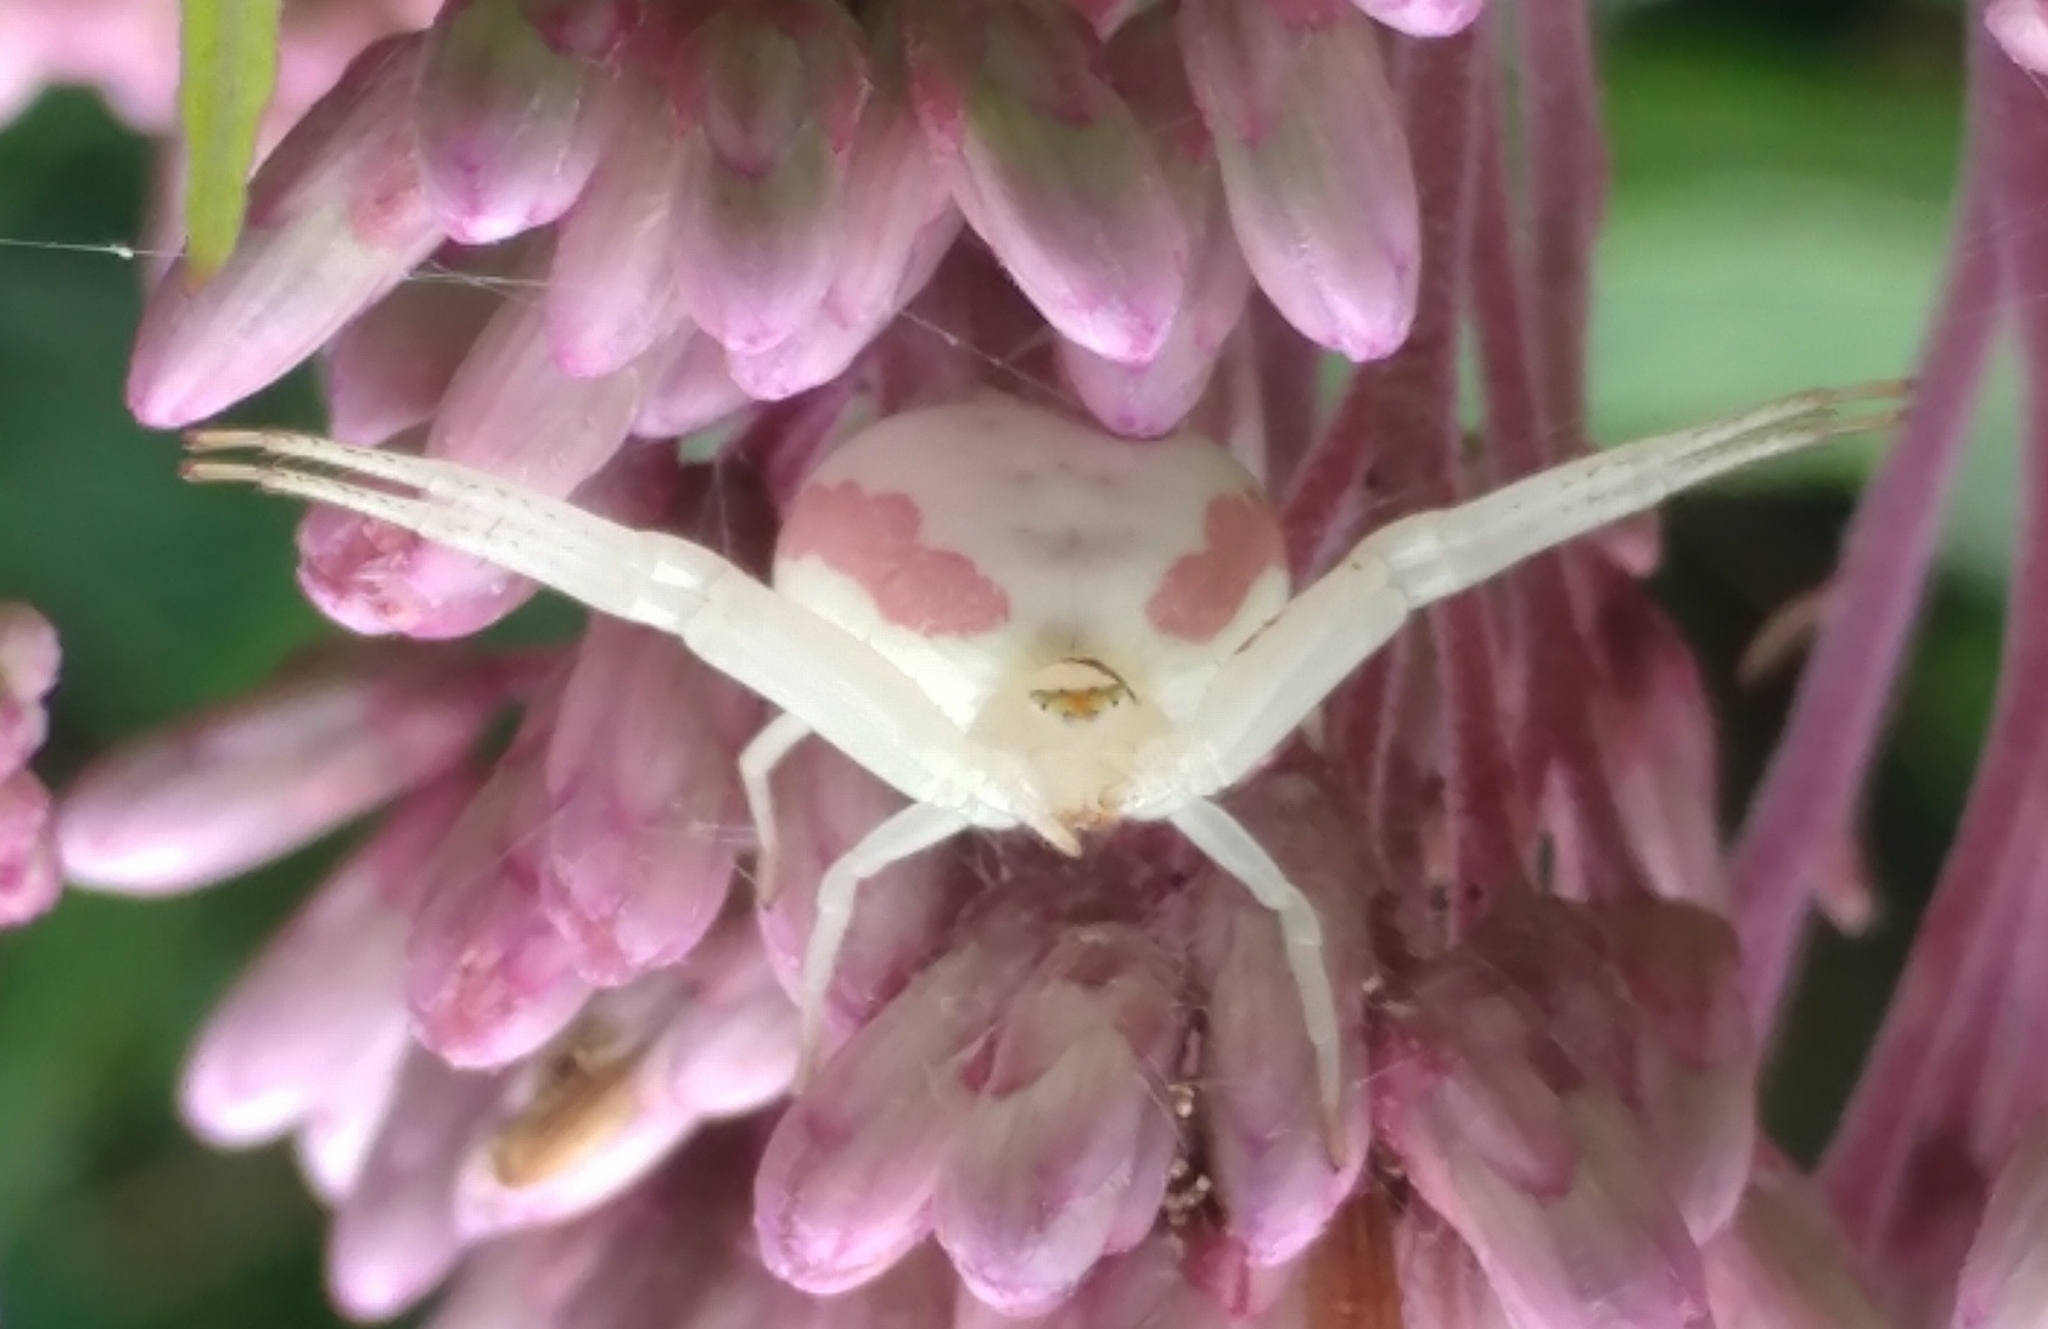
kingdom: Animalia
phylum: Arthropoda
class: Arachnida
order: Araneae
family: Thomisidae
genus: Misumena
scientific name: Misumena vatia
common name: Goldenrod crab spider
